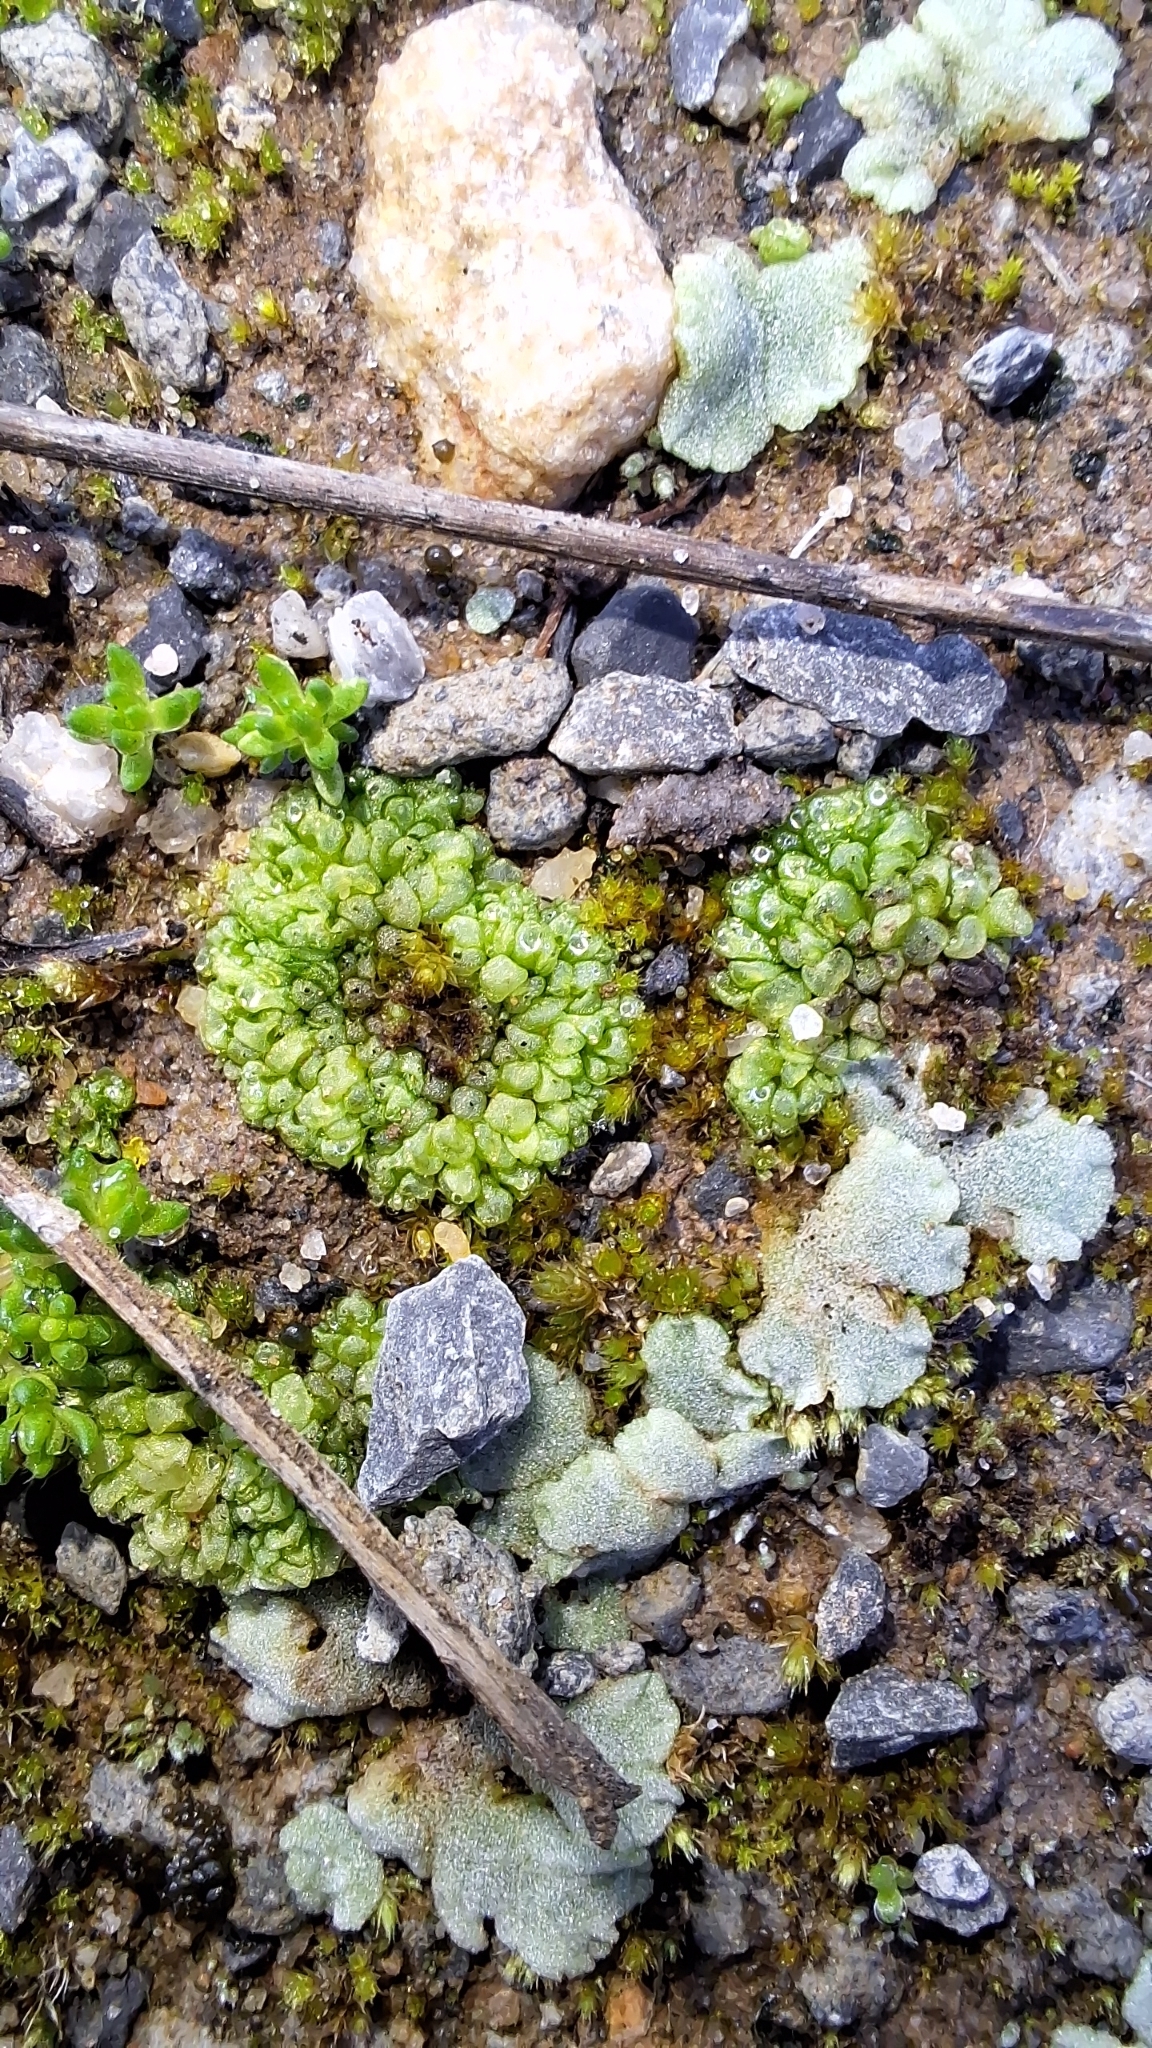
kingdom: Plantae
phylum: Marchantiophyta
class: Marchantiopsida
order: Sphaerocarpales
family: Sphaerocarpaceae
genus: Sphaerocarpos
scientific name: Sphaerocarpos texanus
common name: Texas balloonwort
